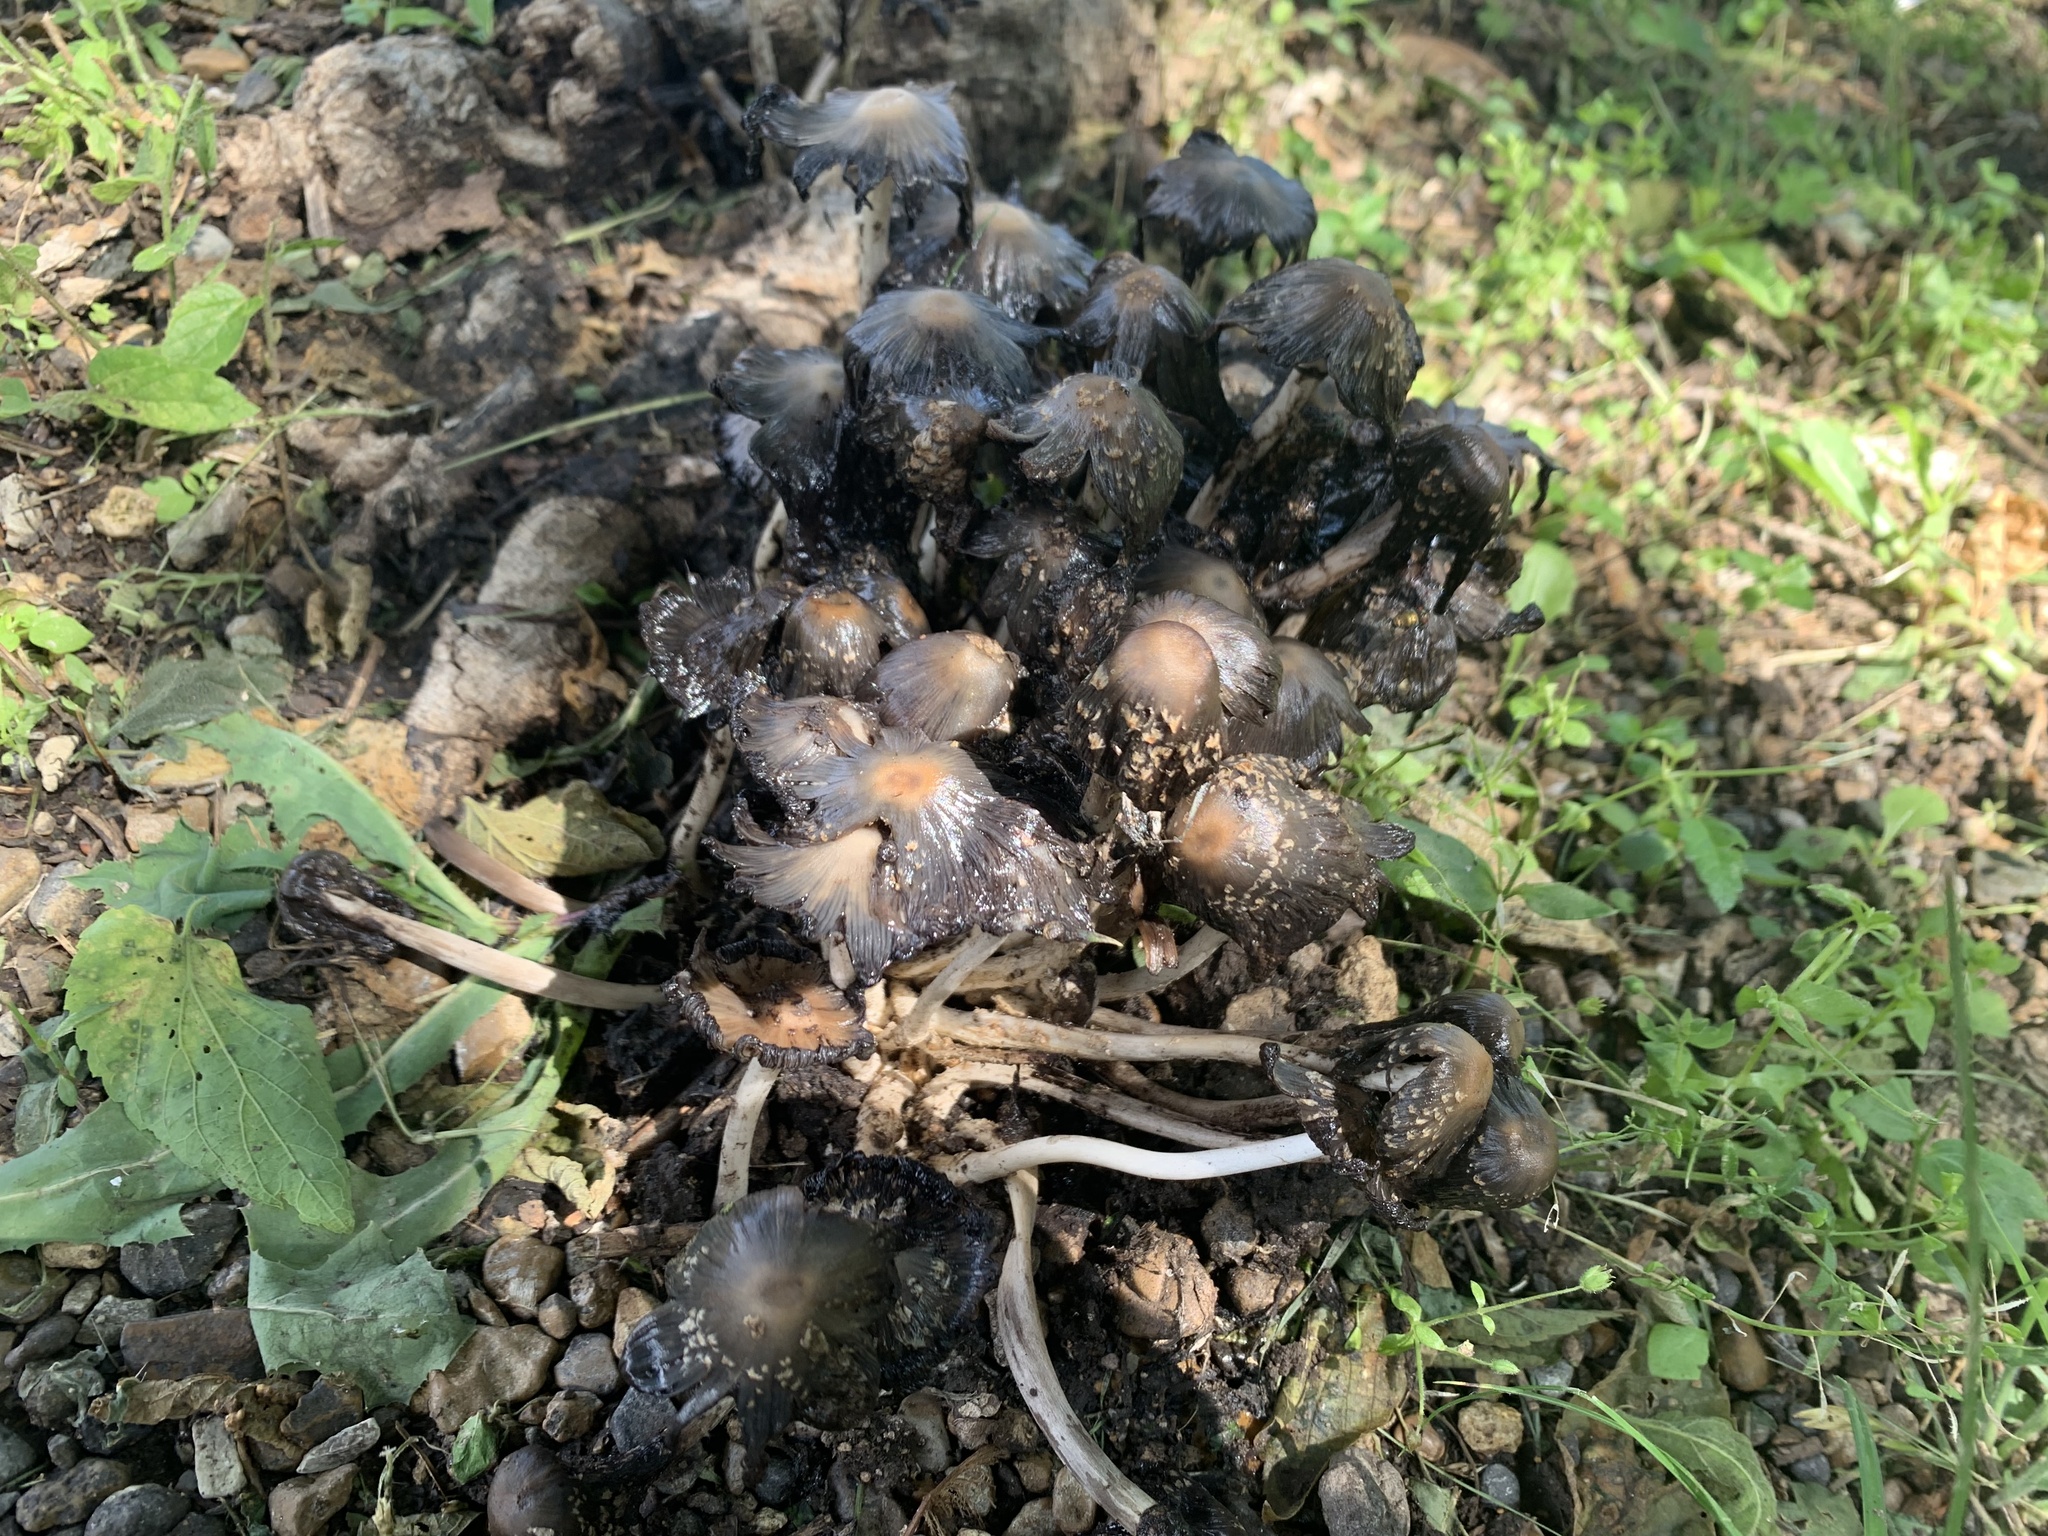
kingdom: Fungi
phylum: Basidiomycota
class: Agaricomycetes
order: Agaricales
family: Psathyrellaceae
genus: Coprinopsis
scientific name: Coprinopsis variegata
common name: Scaly ink cap
